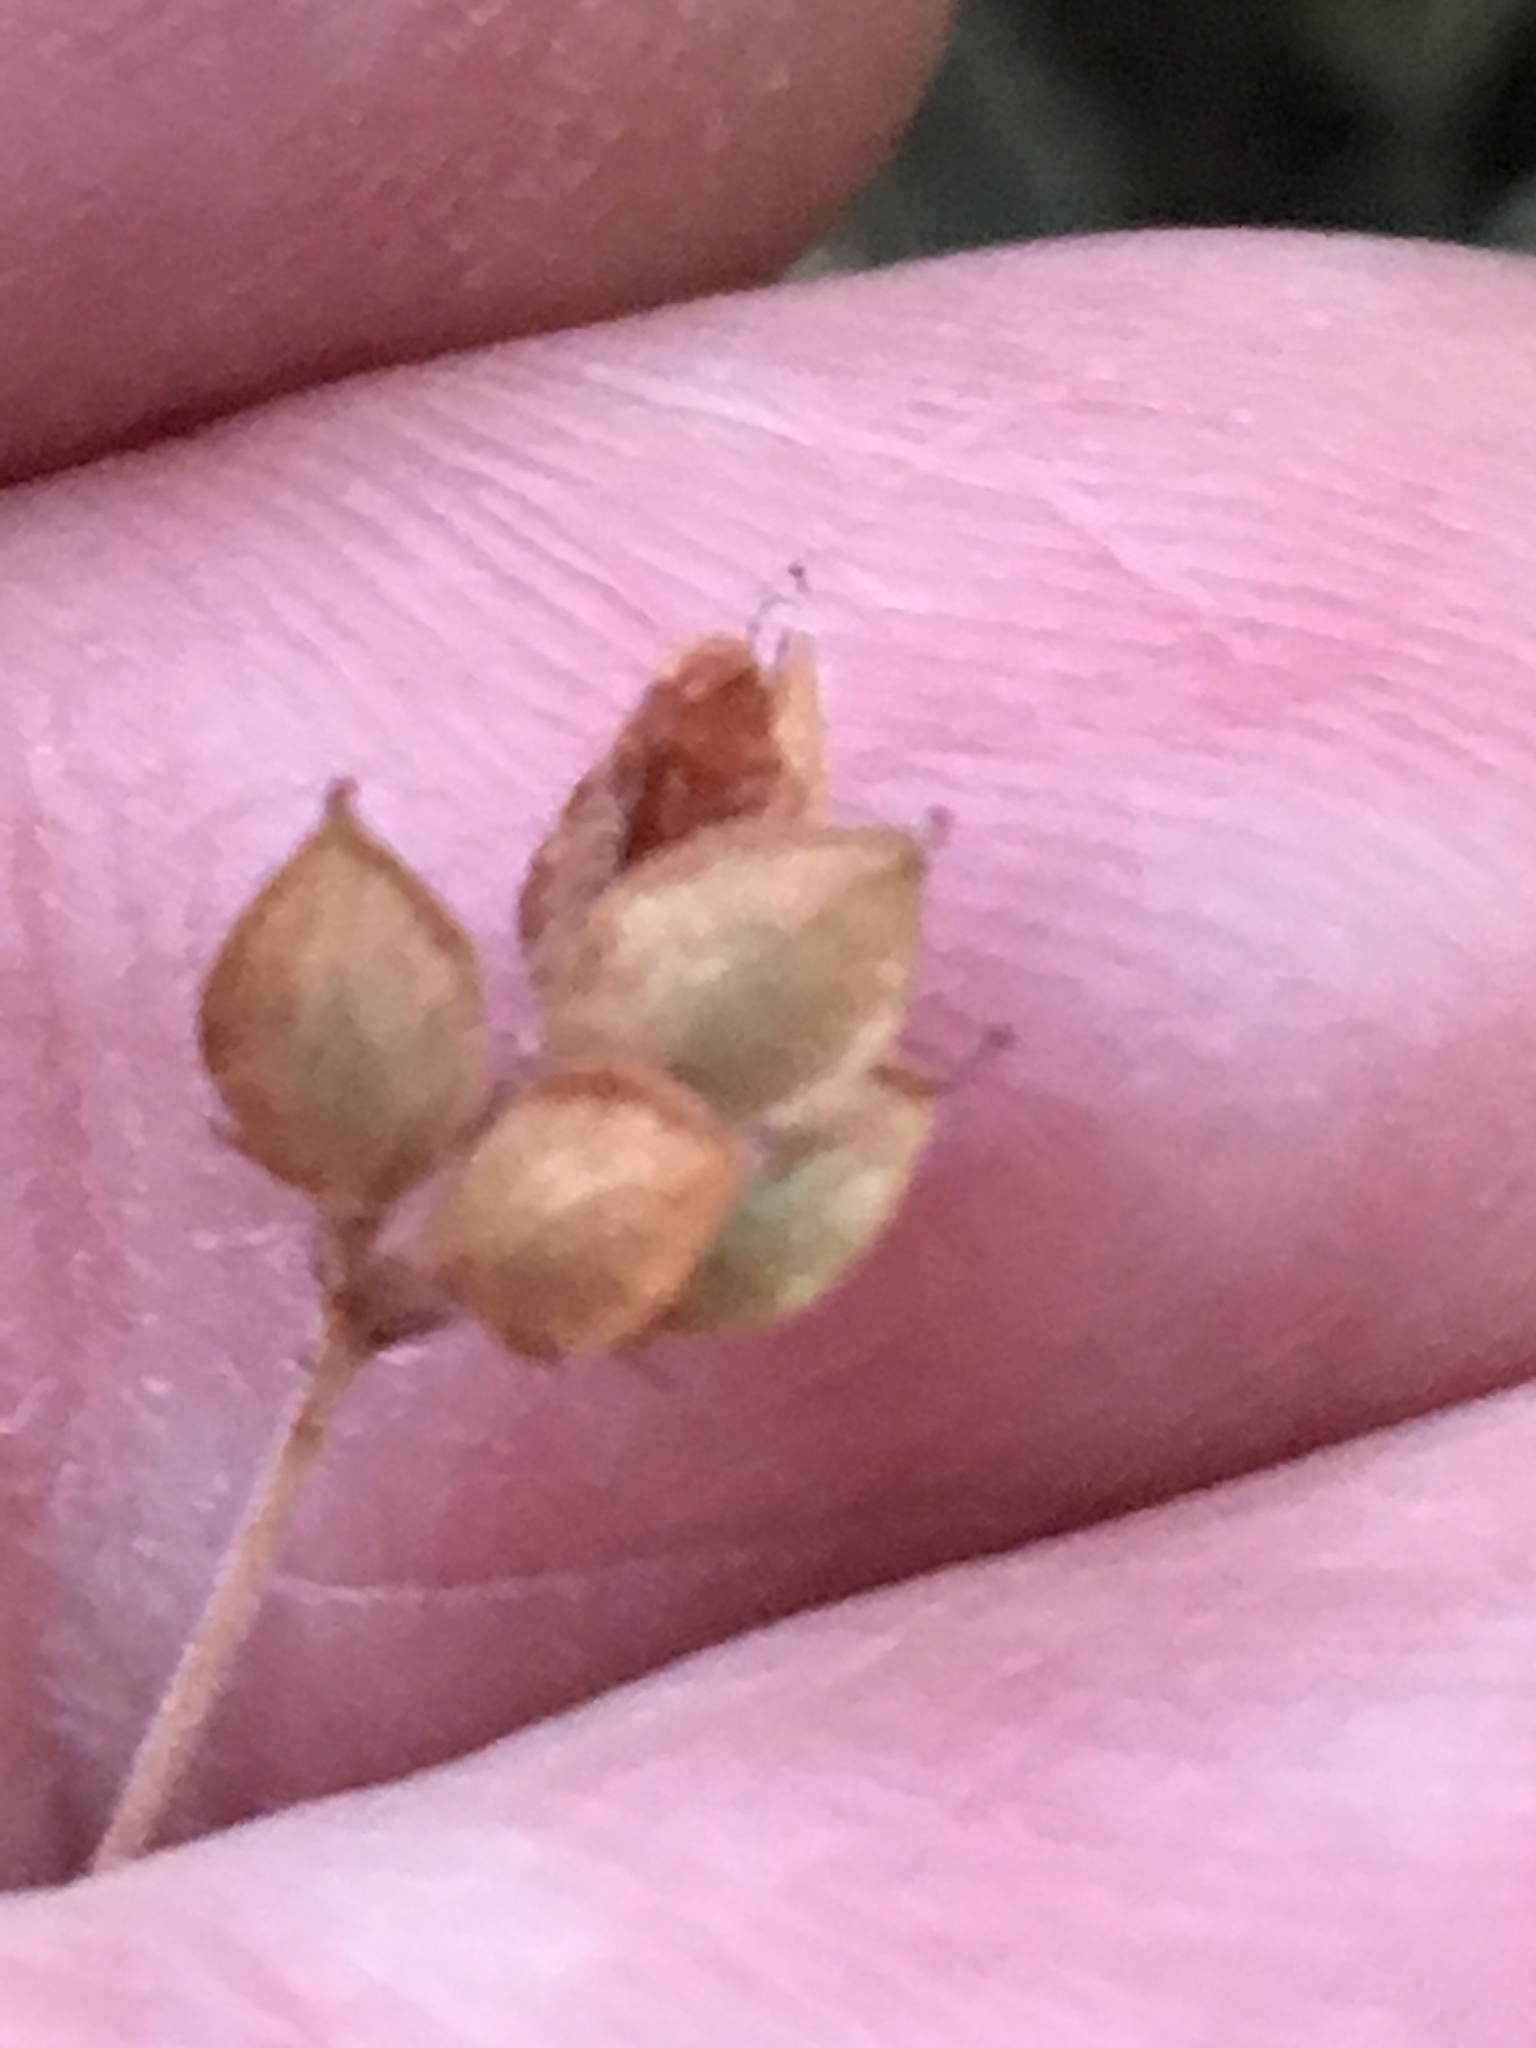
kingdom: Plantae
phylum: Tracheophyta
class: Magnoliopsida
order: Fabales
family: Fabaceae
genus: Lespedeza
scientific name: Lespedeza procumbens
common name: Downy trailing bush-clover
